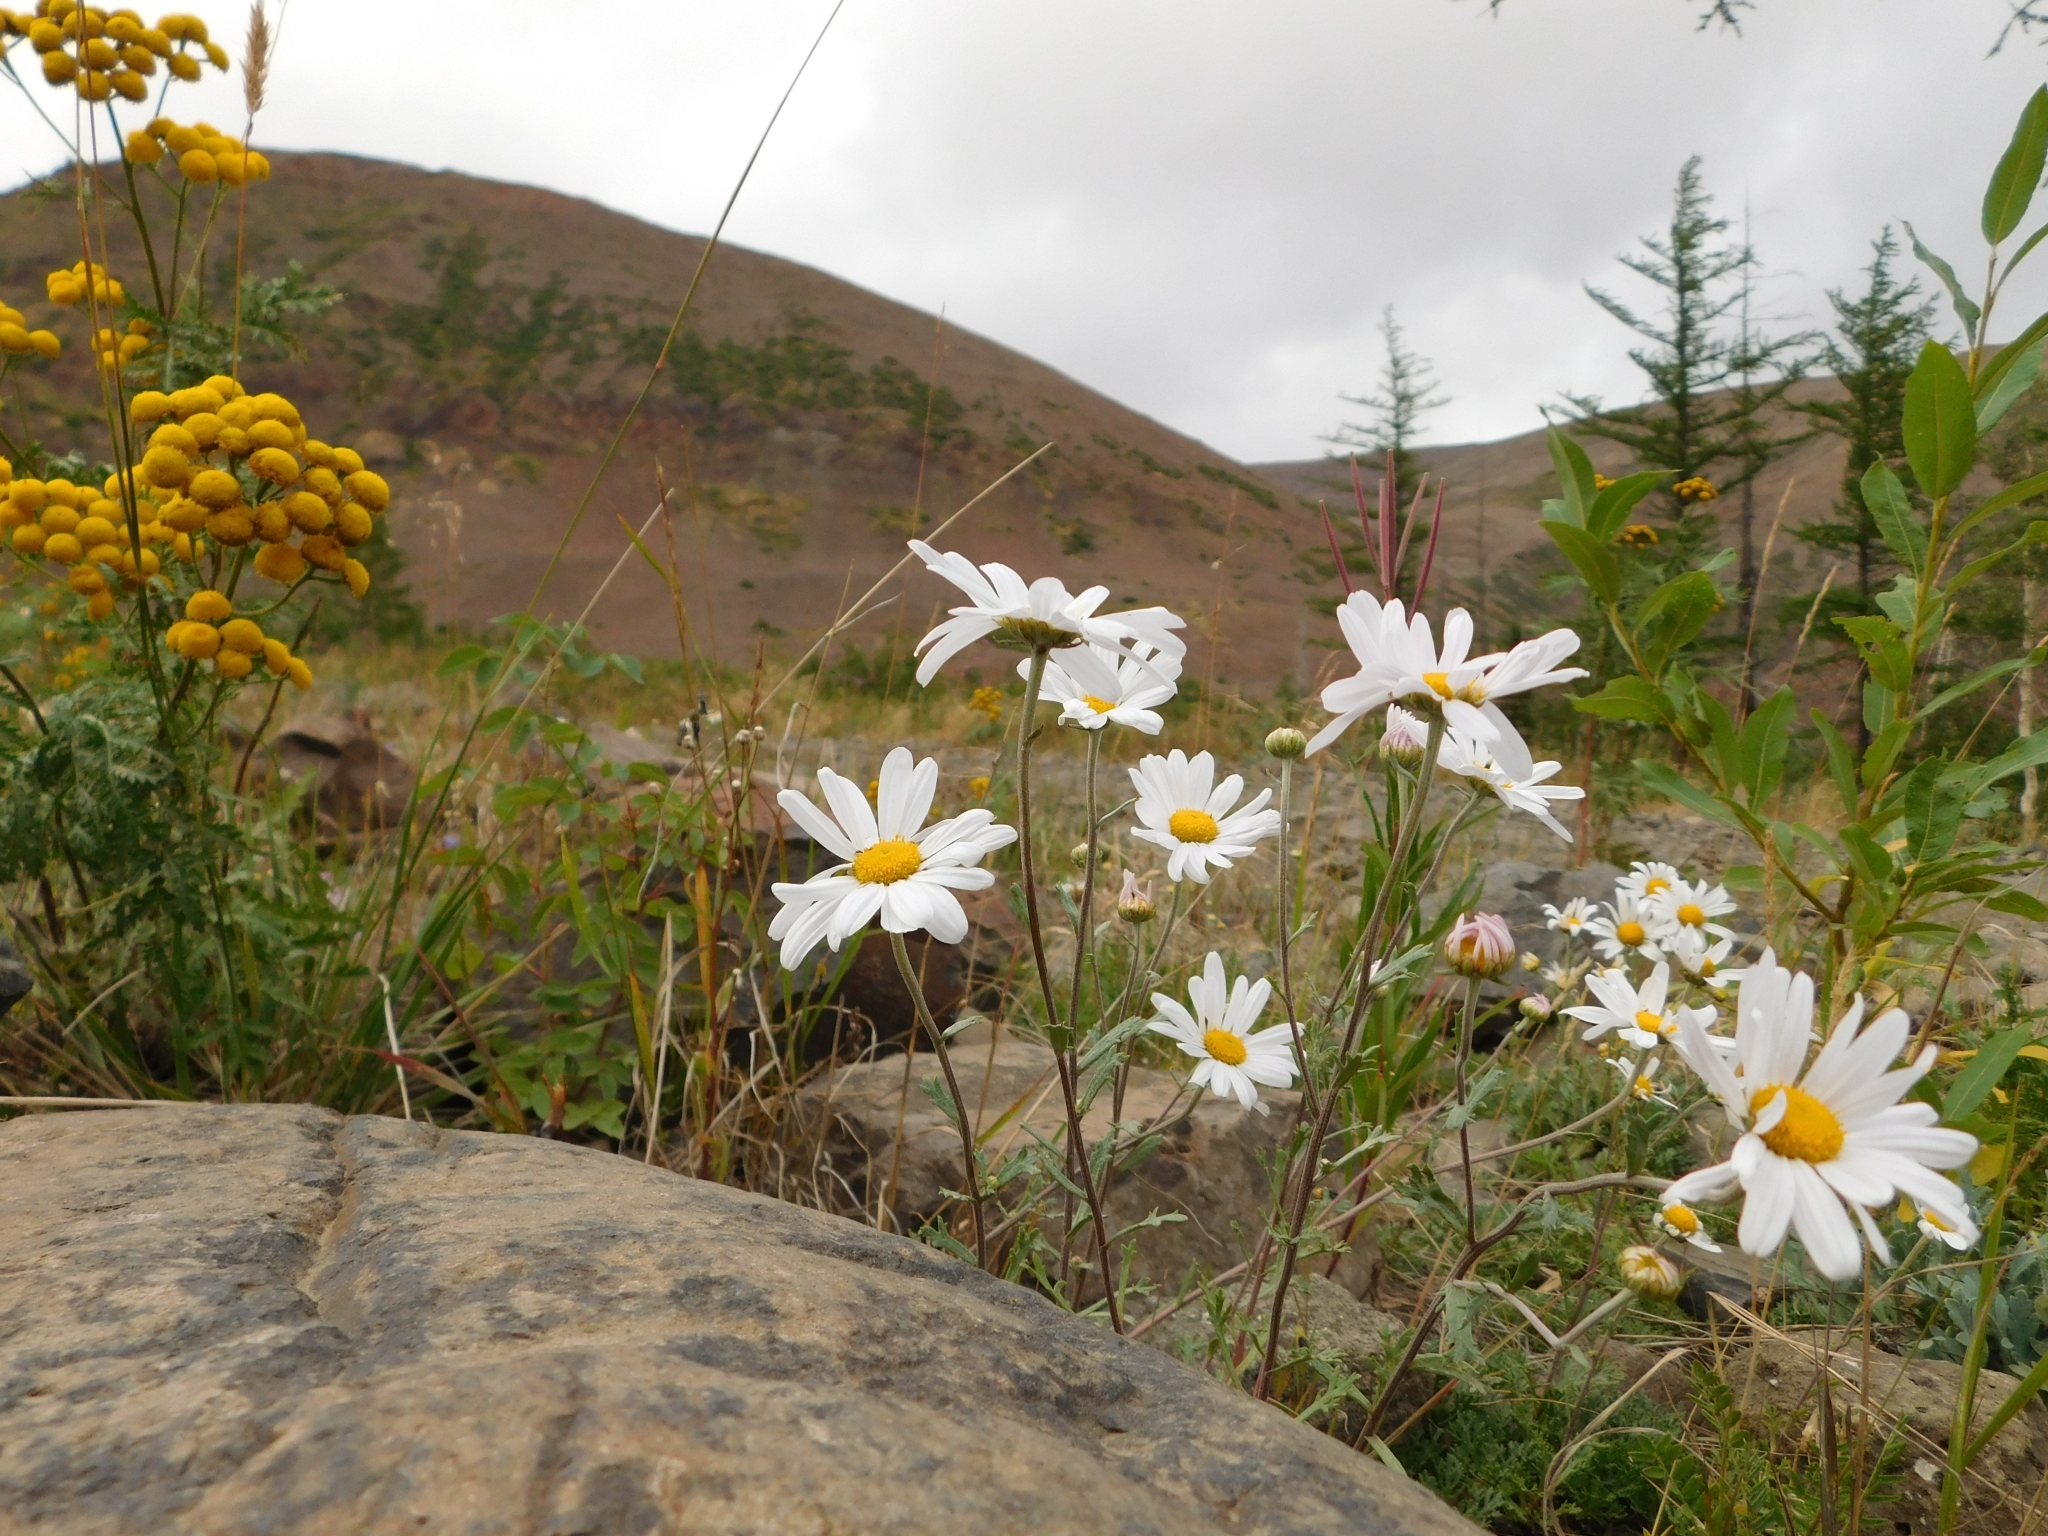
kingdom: Plantae
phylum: Tracheophyta
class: Magnoliopsida
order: Asterales
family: Asteraceae
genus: Chrysanthemum
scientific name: Chrysanthemum zawadzkii
